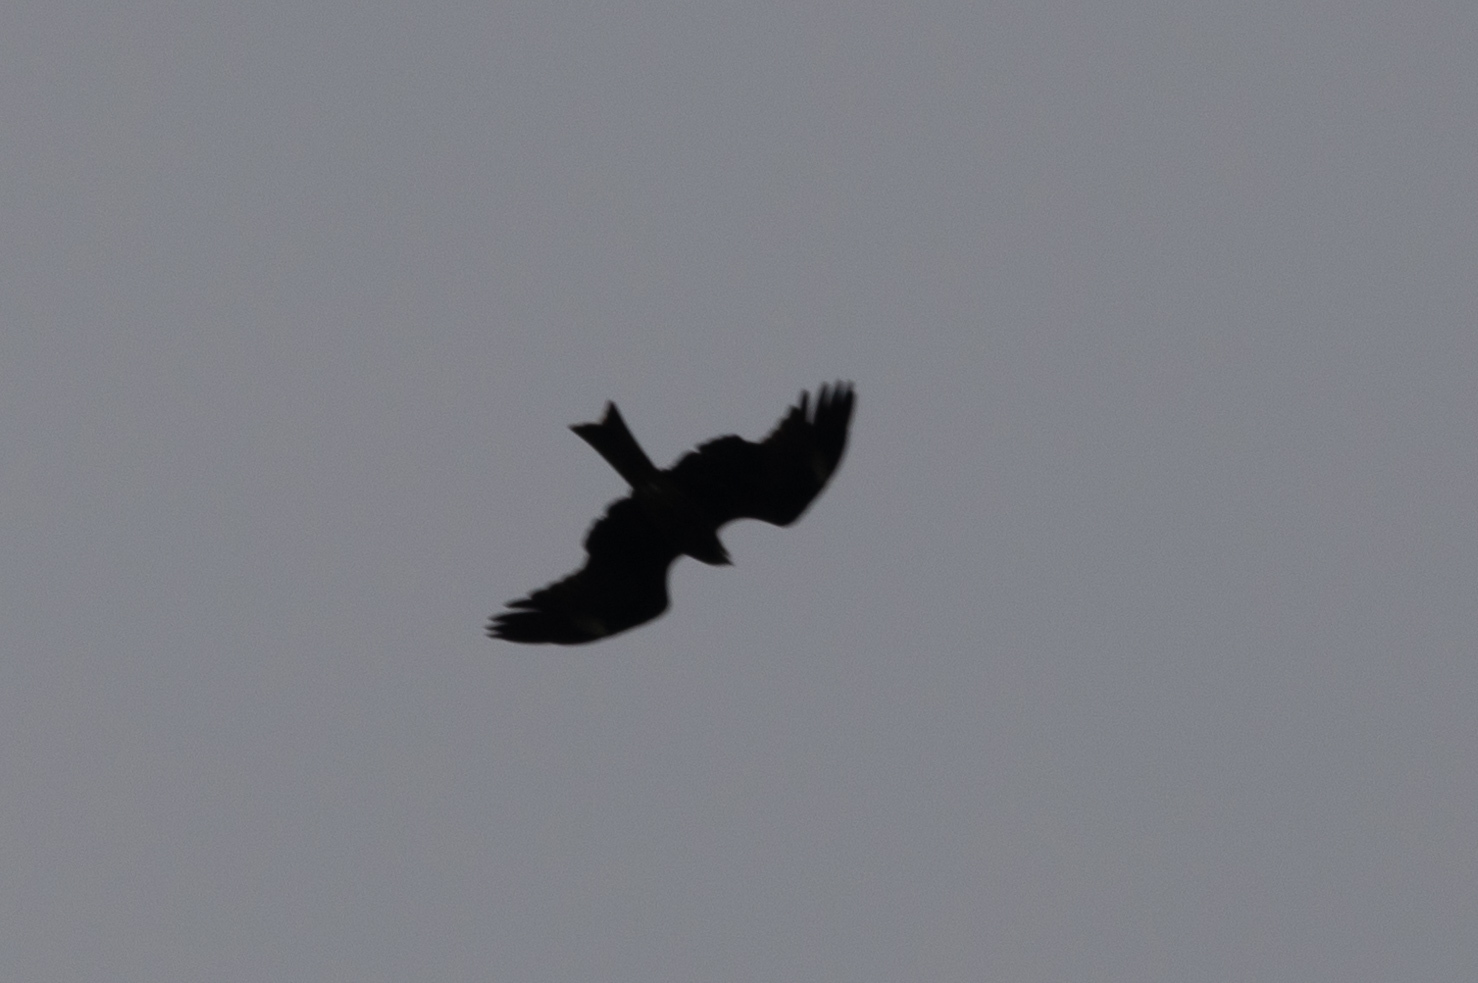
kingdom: Animalia
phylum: Chordata
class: Aves
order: Accipitriformes
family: Accipitridae
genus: Milvus
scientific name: Milvus migrans
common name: Black kite
